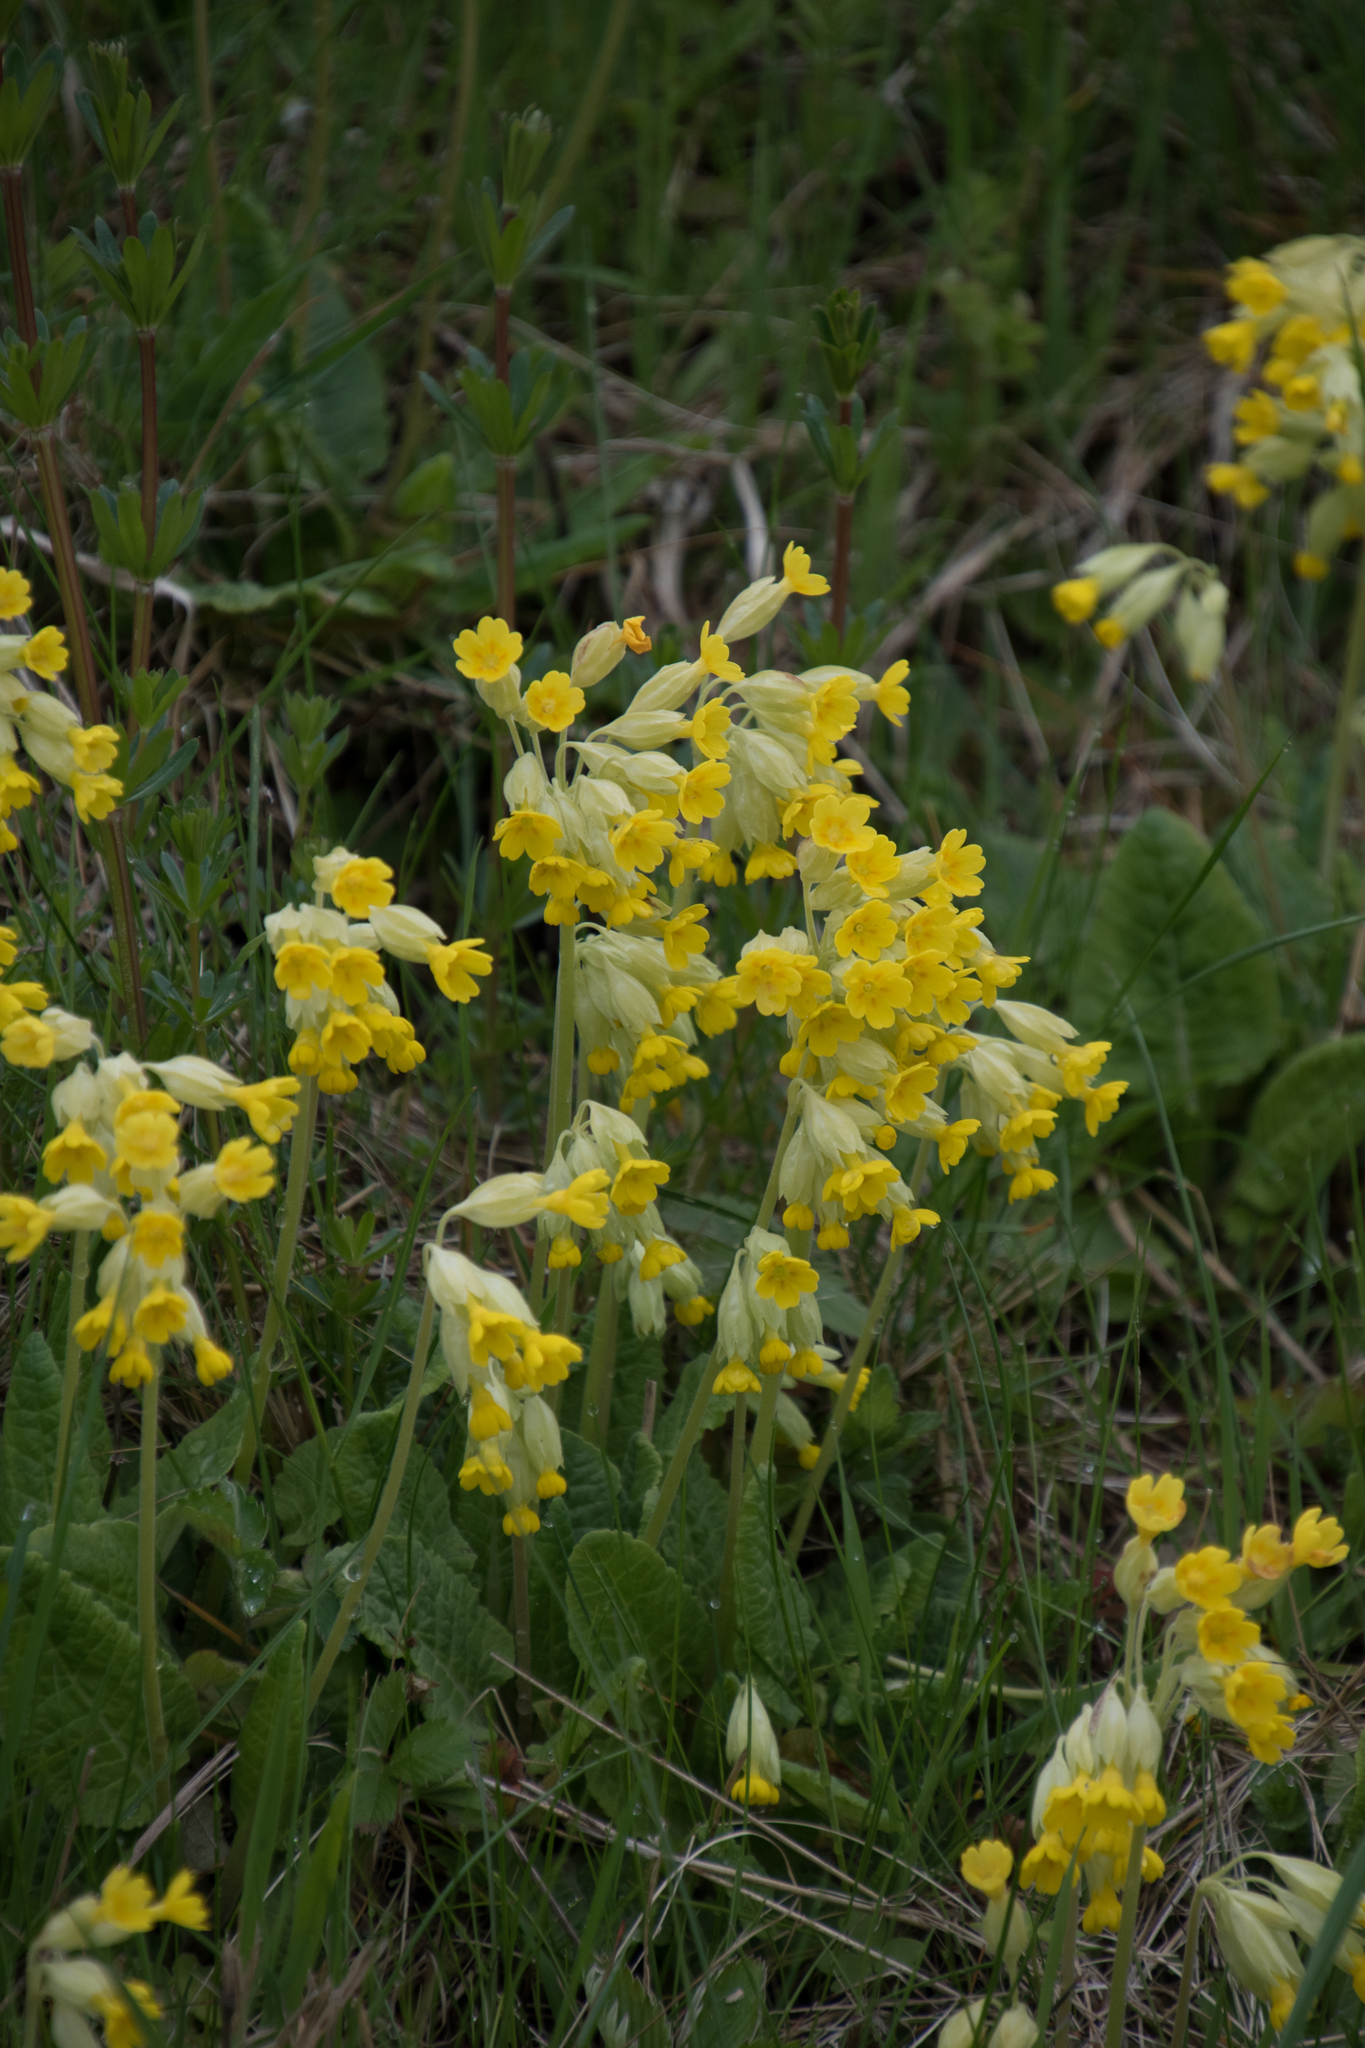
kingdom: Plantae
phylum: Tracheophyta
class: Magnoliopsida
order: Ericales
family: Primulaceae
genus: Primula
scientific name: Primula veris
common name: Cowslip
